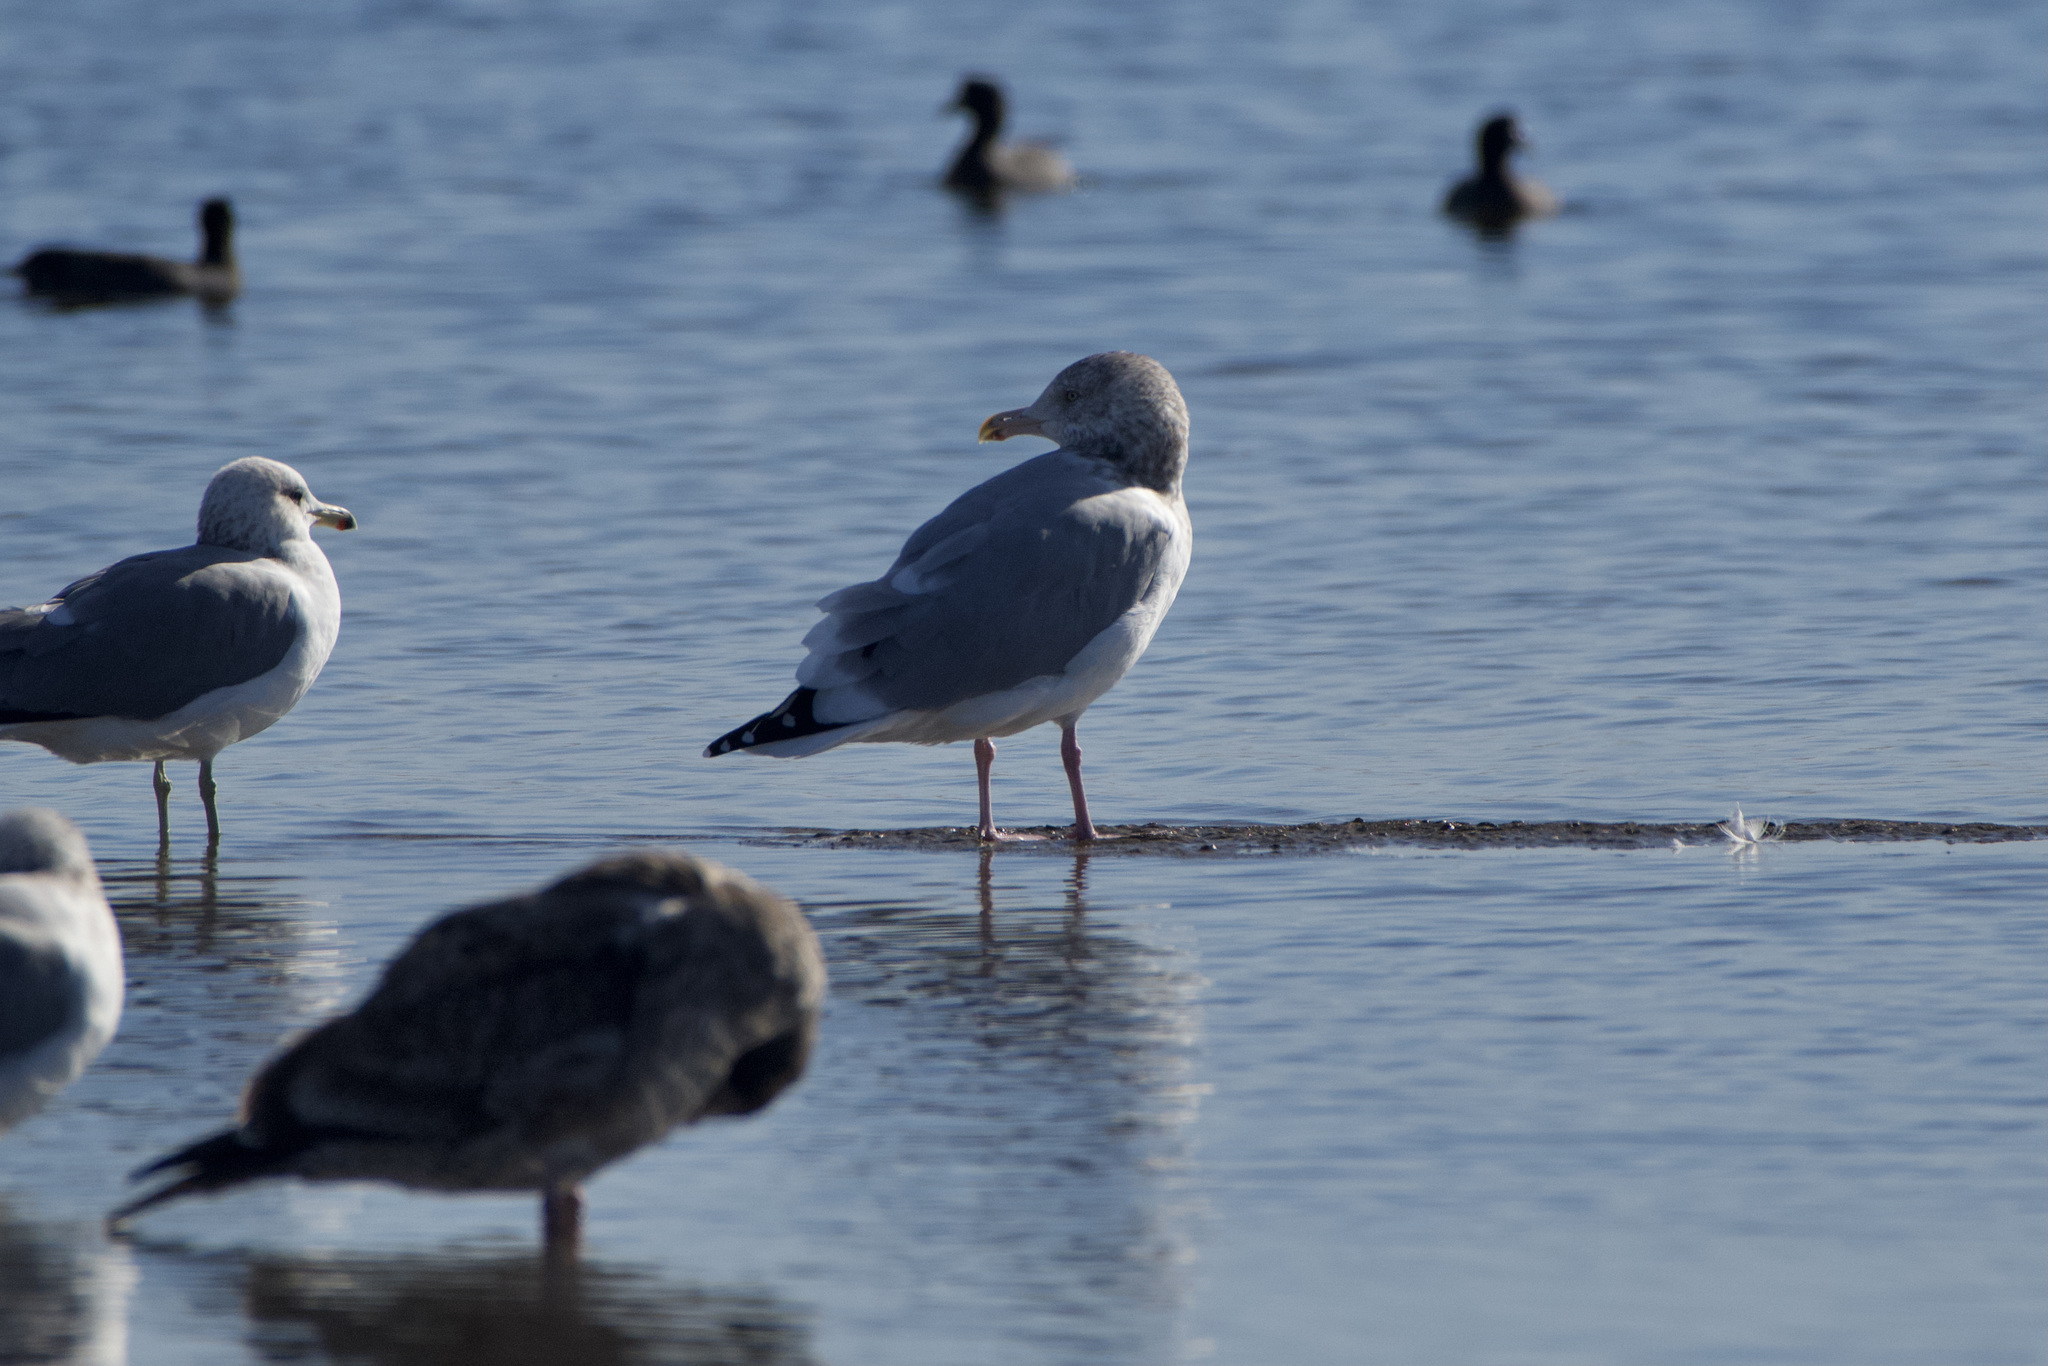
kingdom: Animalia
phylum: Chordata
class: Aves
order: Charadriiformes
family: Laridae
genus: Larus
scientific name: Larus smithsonianus
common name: American herring gull
